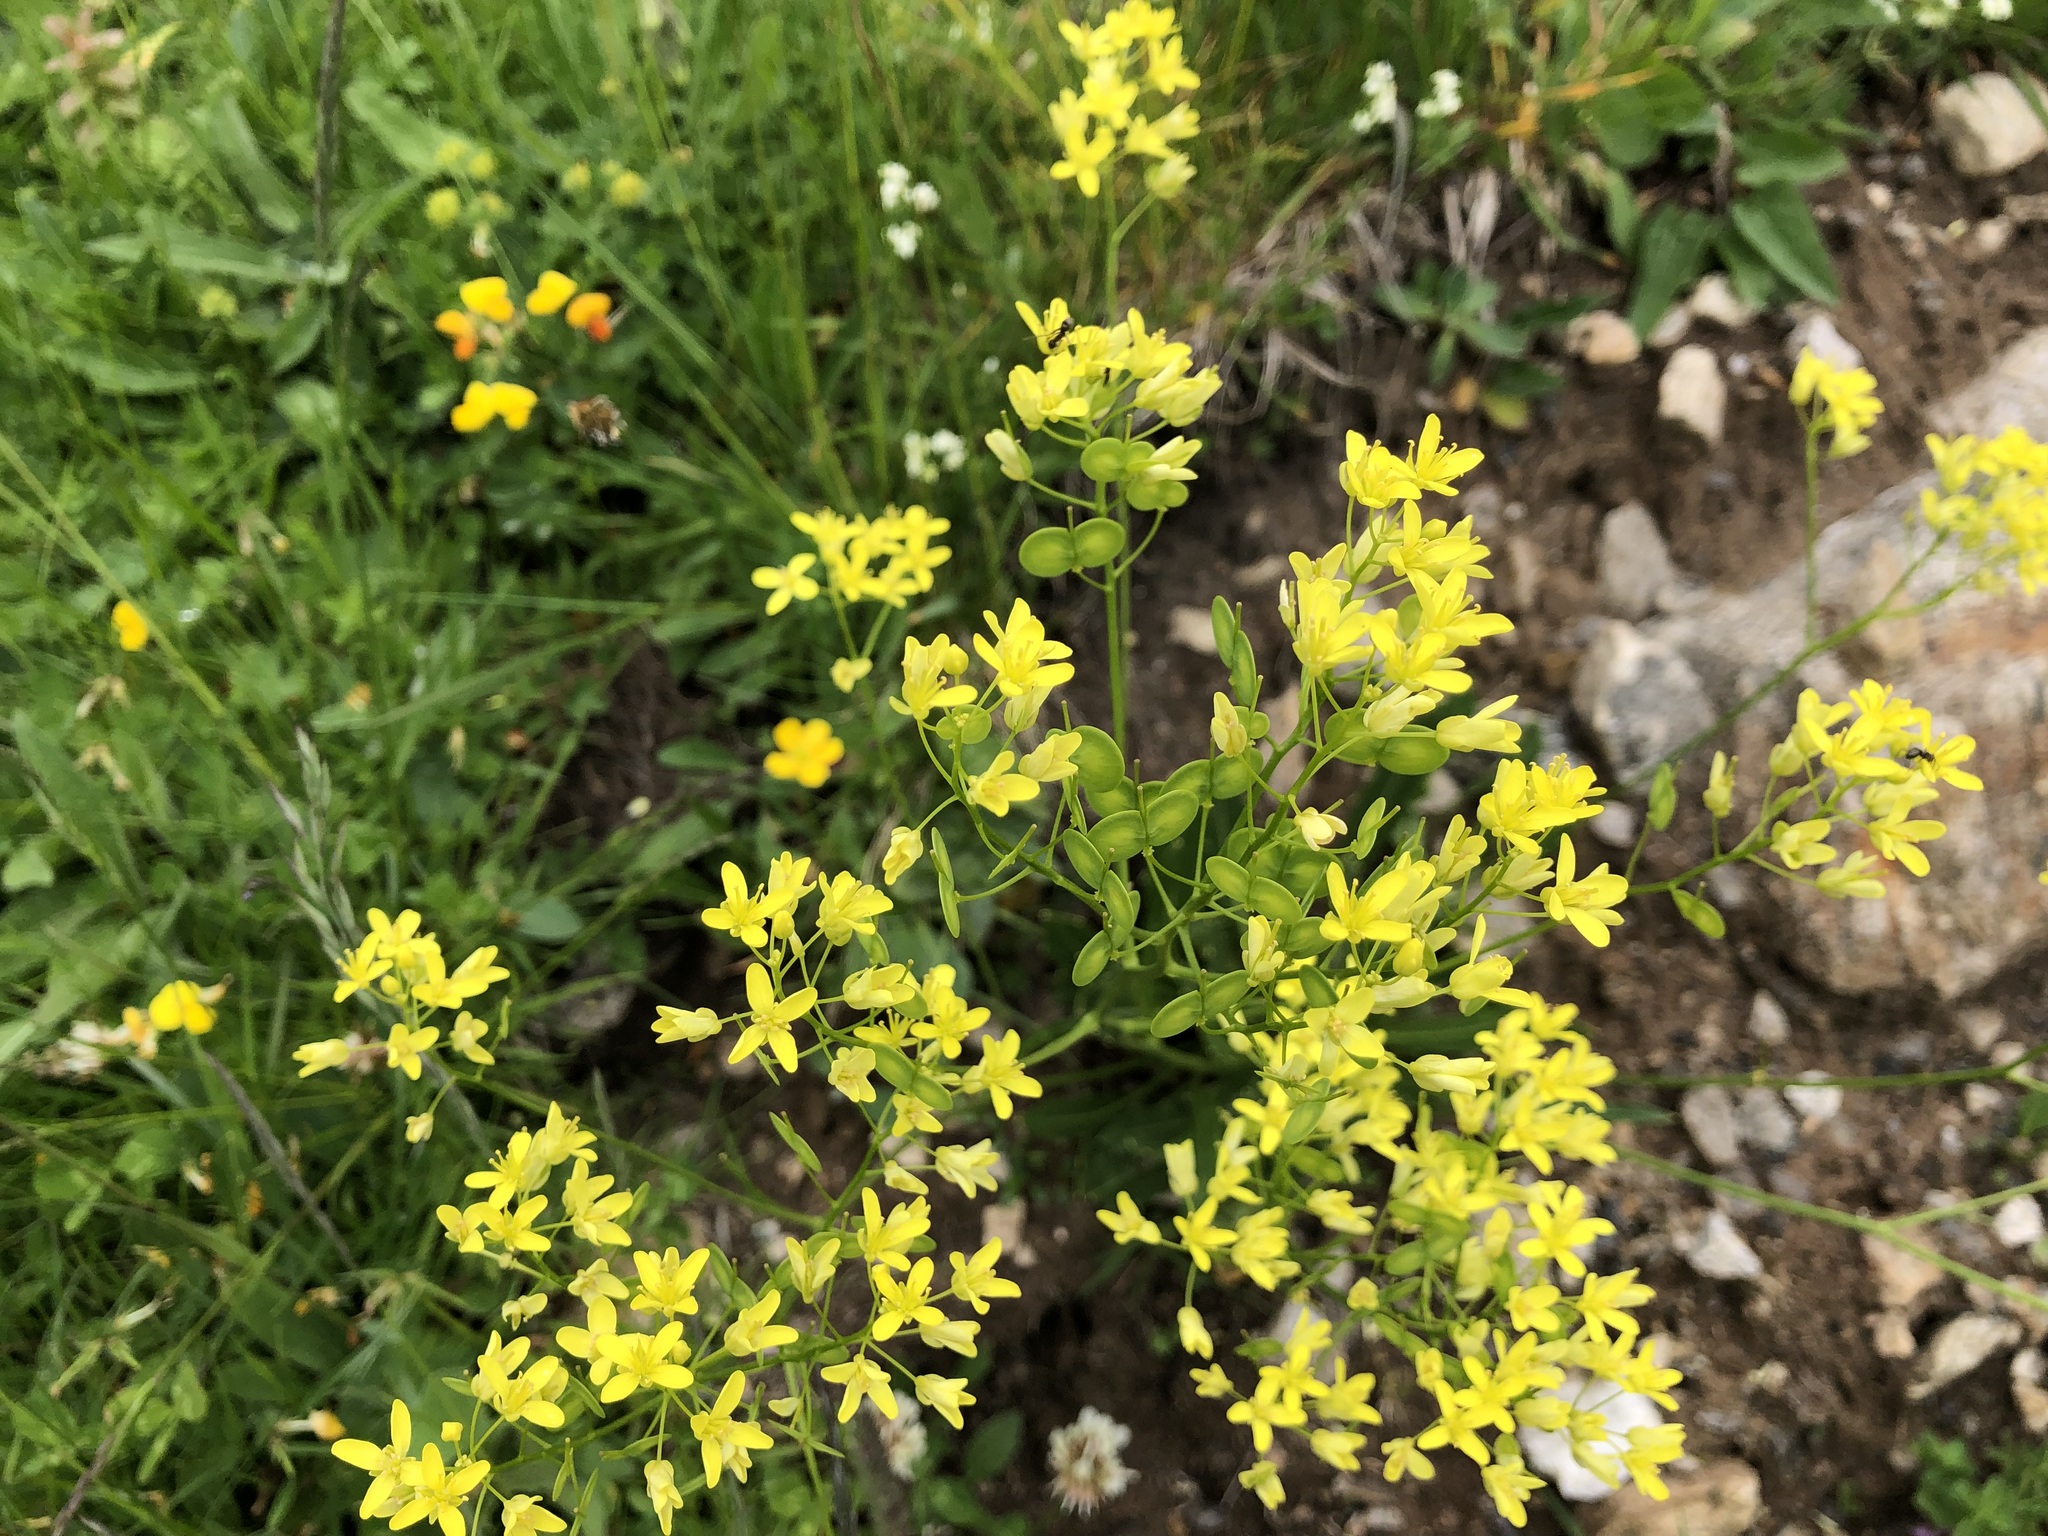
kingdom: Plantae
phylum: Tracheophyta
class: Magnoliopsida
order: Brassicales
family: Brassicaceae
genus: Biscutella
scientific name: Biscutella laevigata
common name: Buckler mustard
